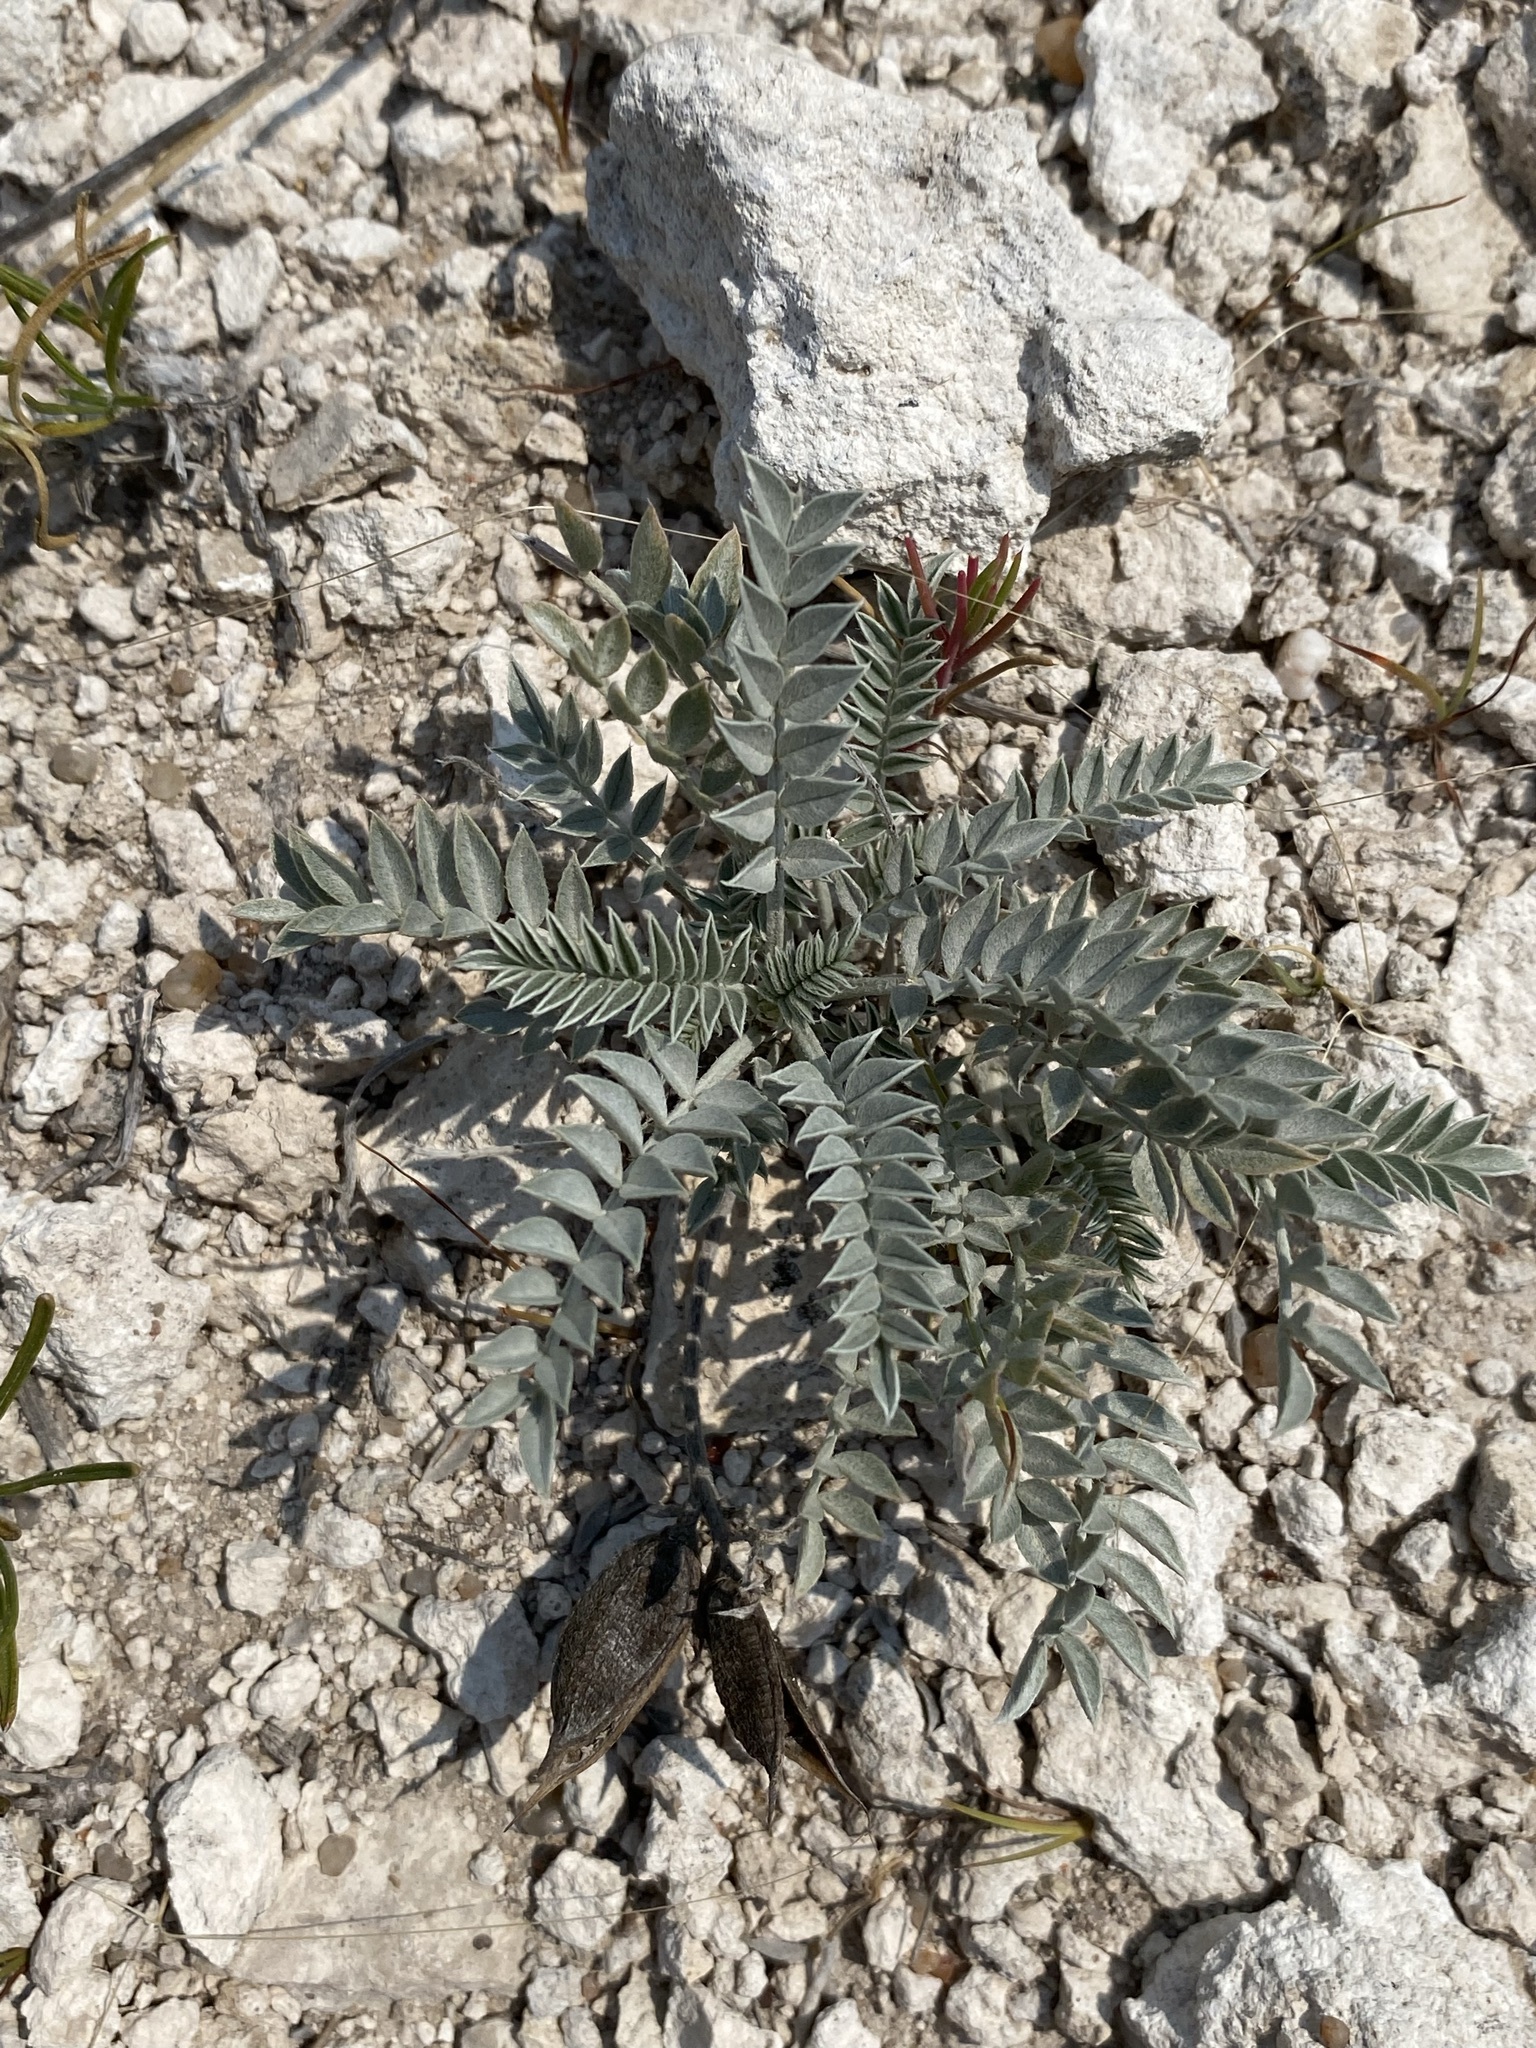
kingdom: Plantae
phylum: Tracheophyta
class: Magnoliopsida
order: Fabales
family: Fabaceae
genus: Astragalus
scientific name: Astragalus missouriensis
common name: Missouri milk-vetch
